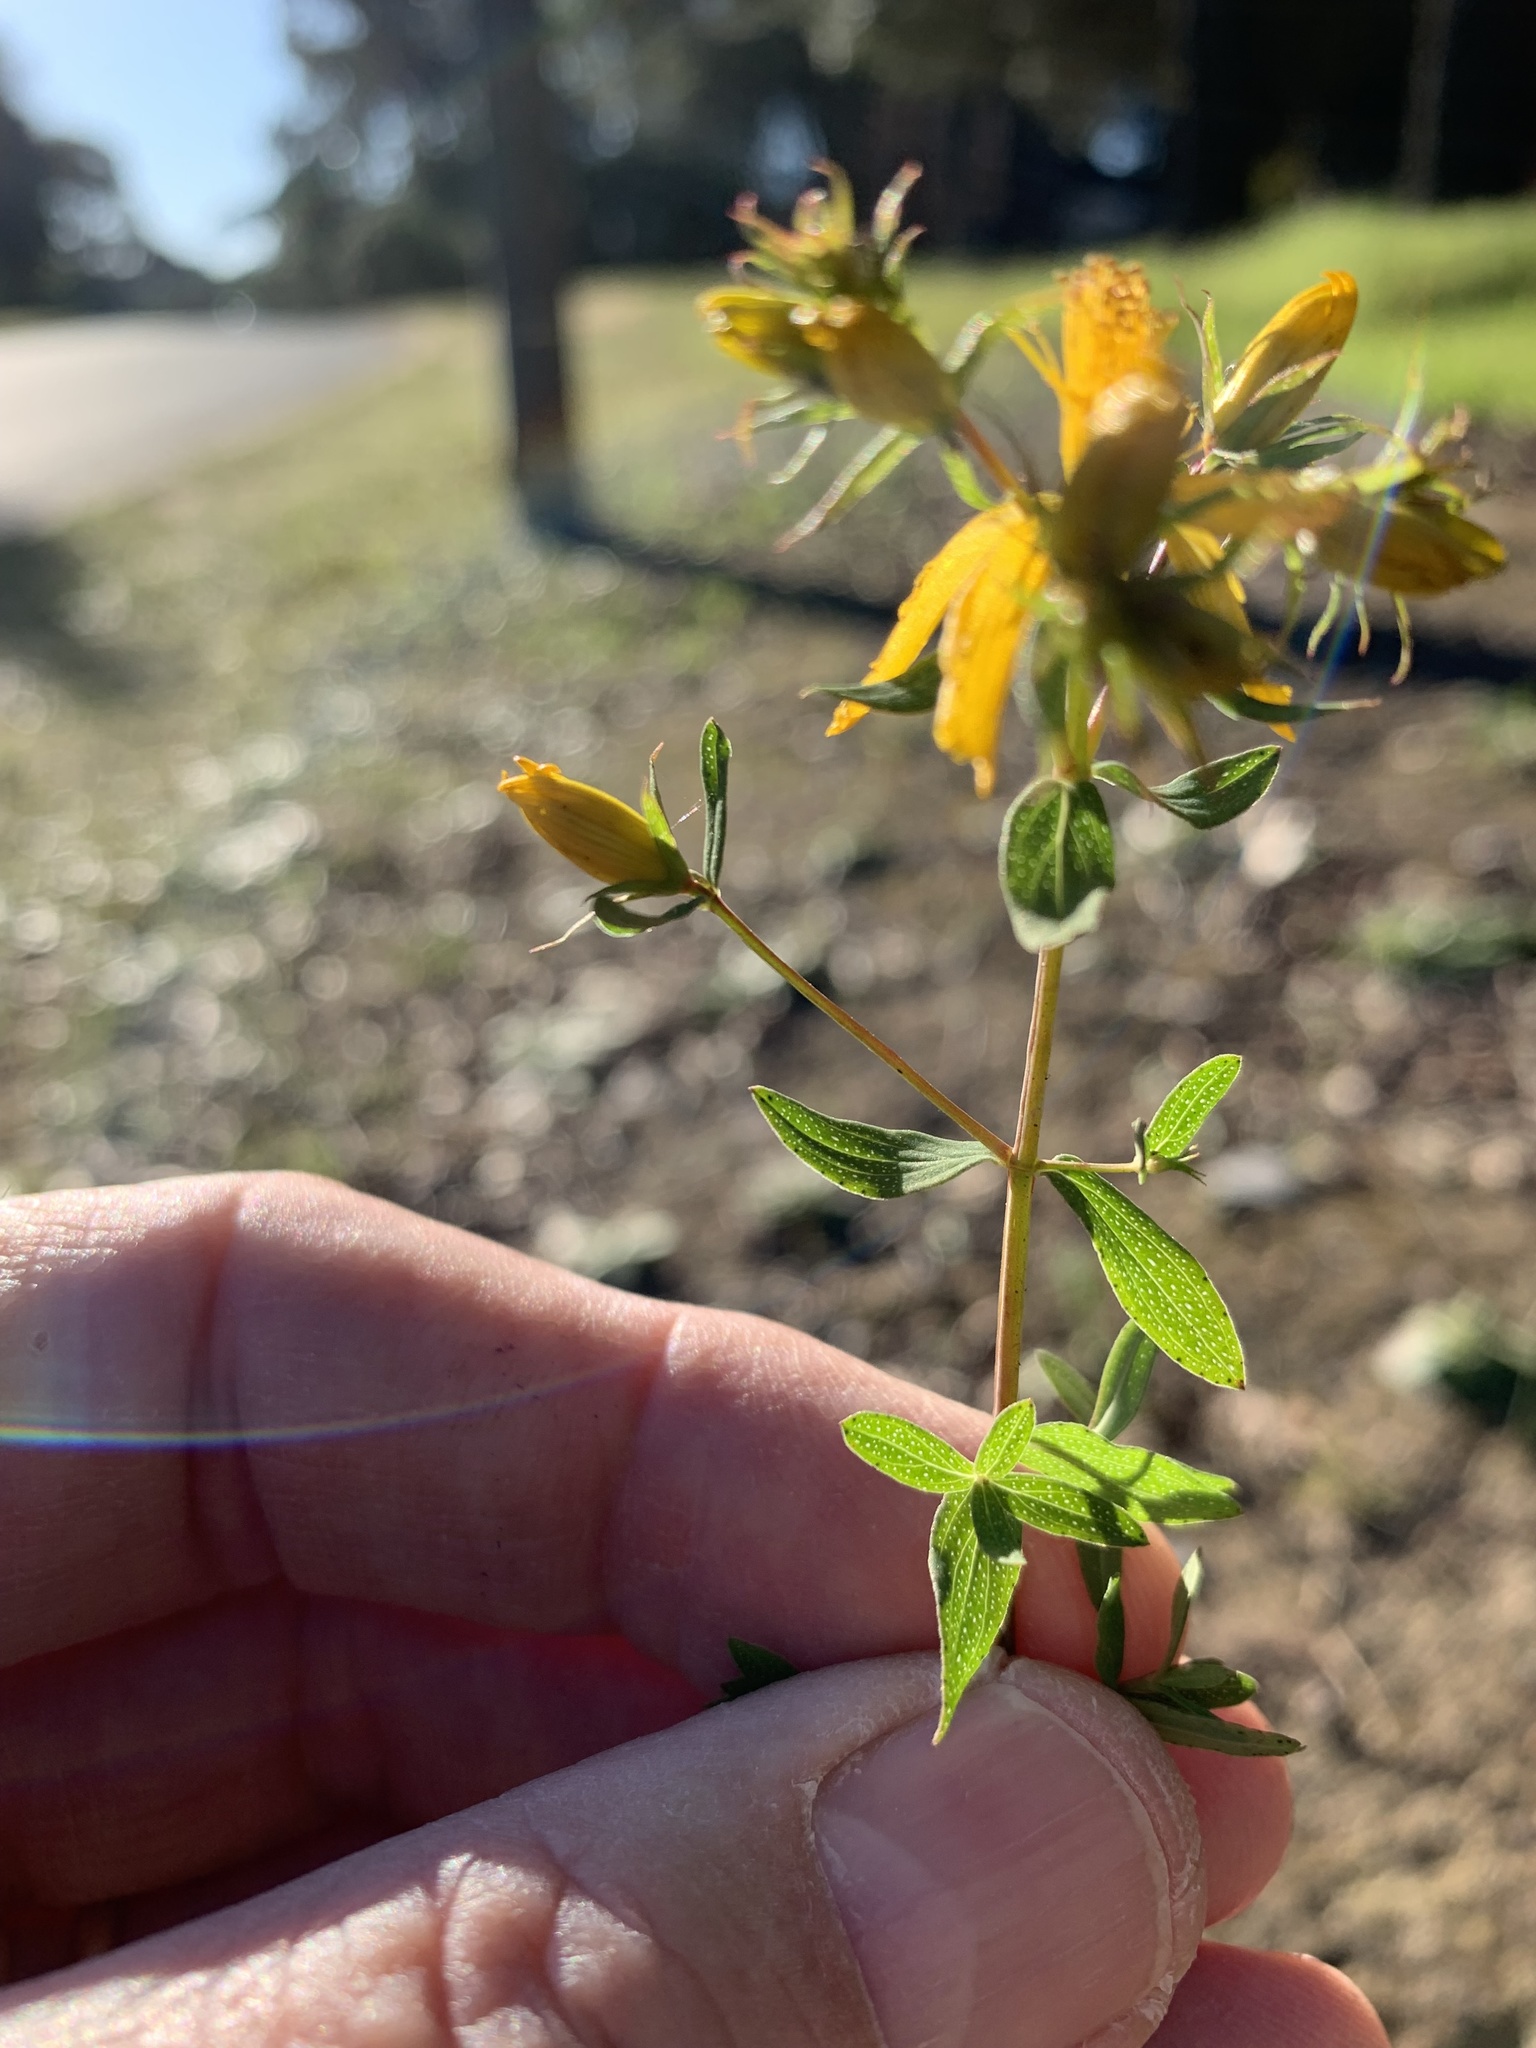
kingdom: Plantae
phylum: Tracheophyta
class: Magnoliopsida
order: Malpighiales
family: Hypericaceae
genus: Hypericum
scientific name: Hypericum perforatum
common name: Common st. johnswort
